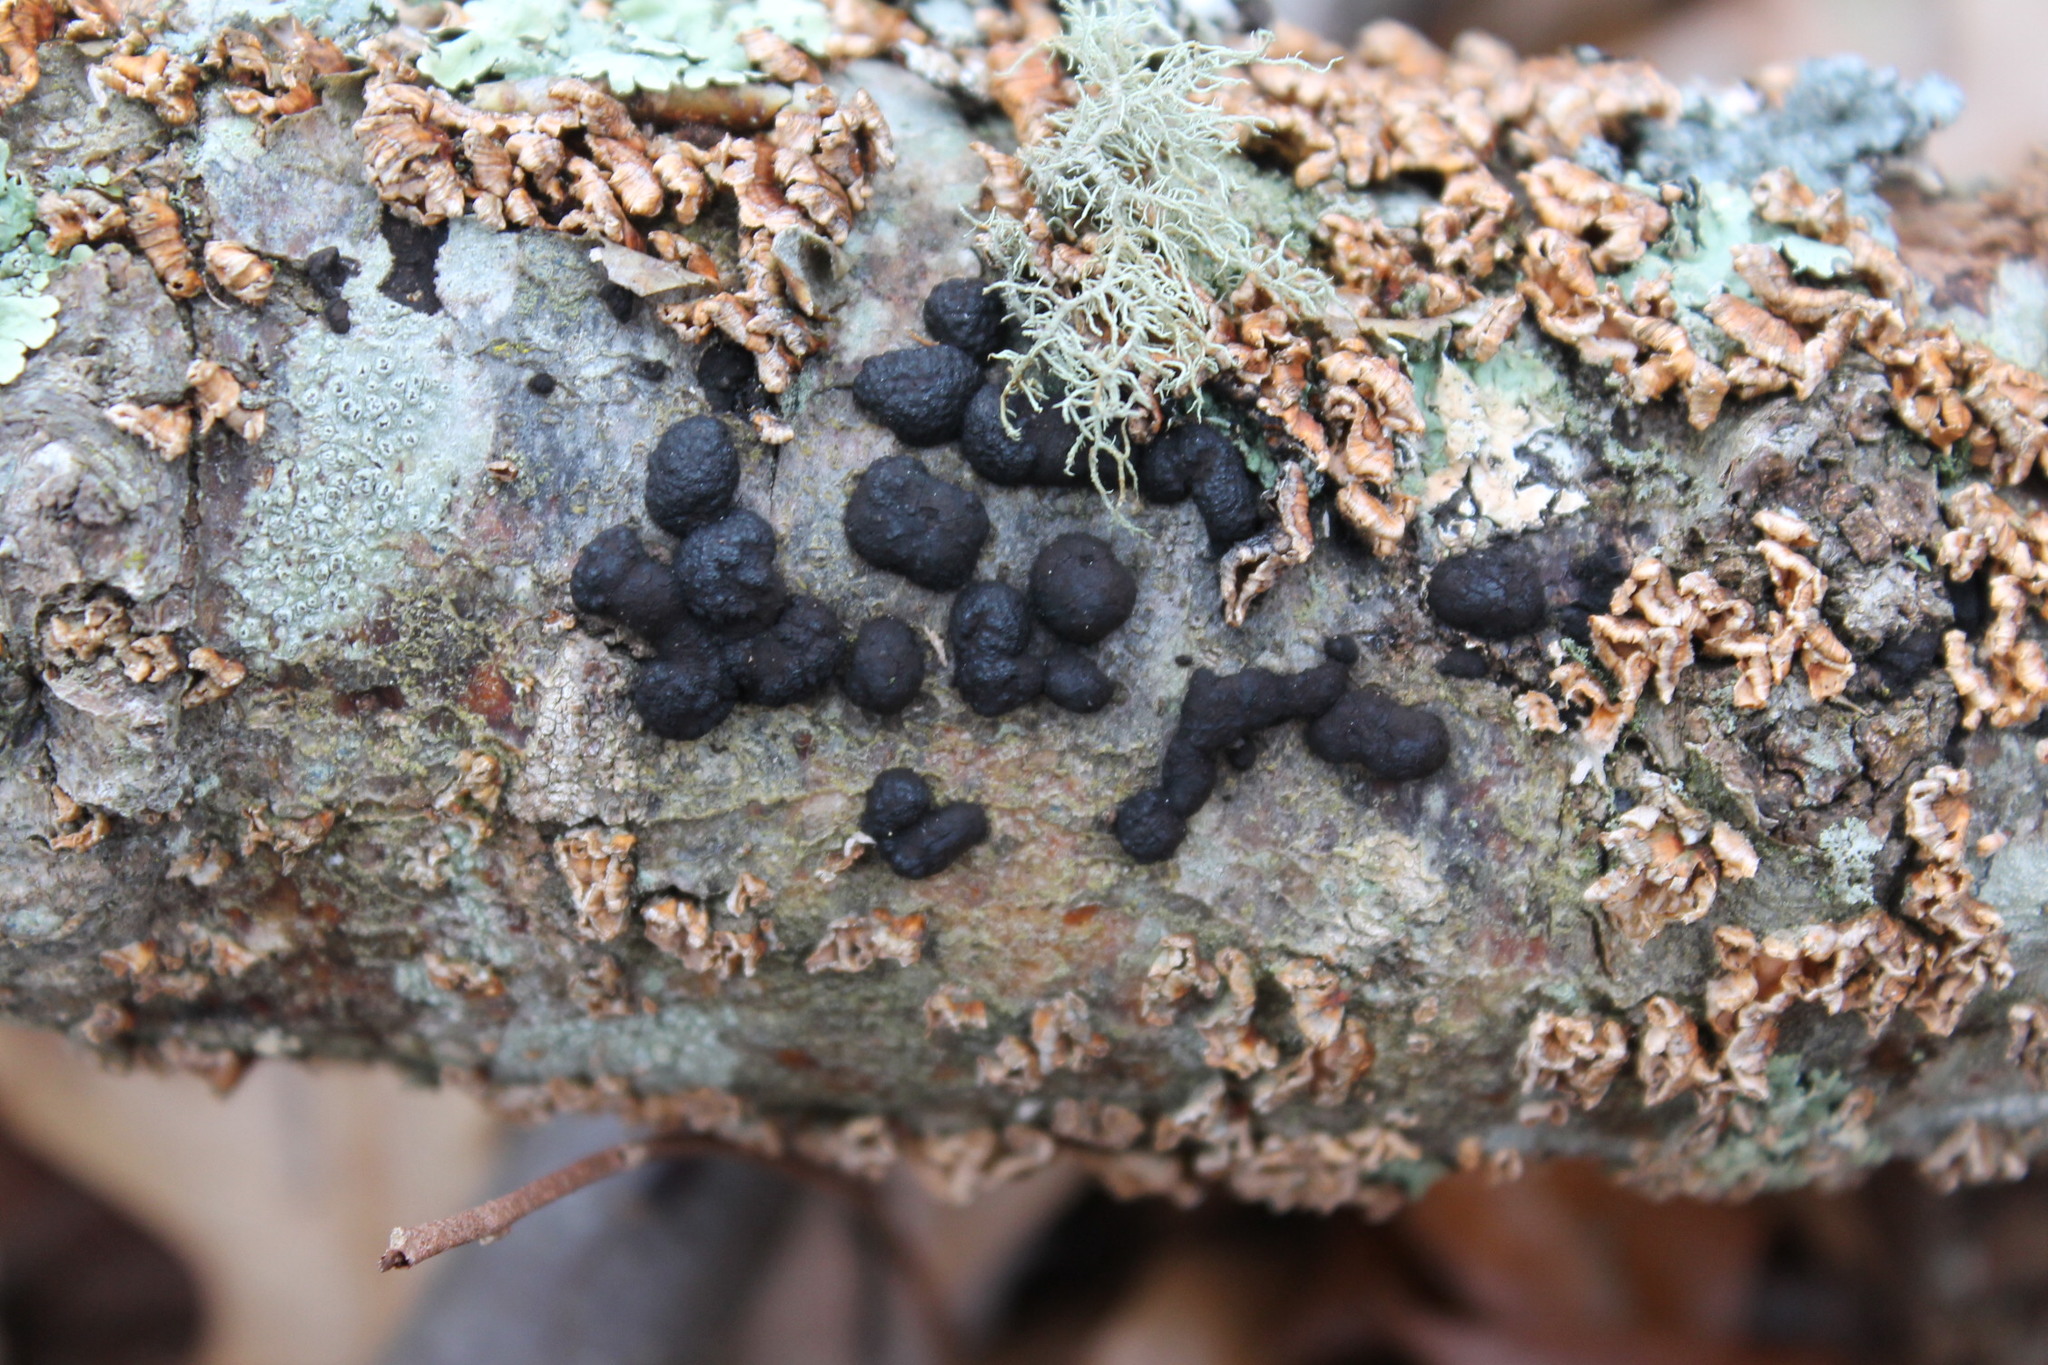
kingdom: Fungi
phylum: Ascomycota
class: Sordariomycetes
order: Xylariales
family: Hypoxylaceae
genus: Jackrogersella
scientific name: Jackrogersella multiformis
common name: Birch woodwart
